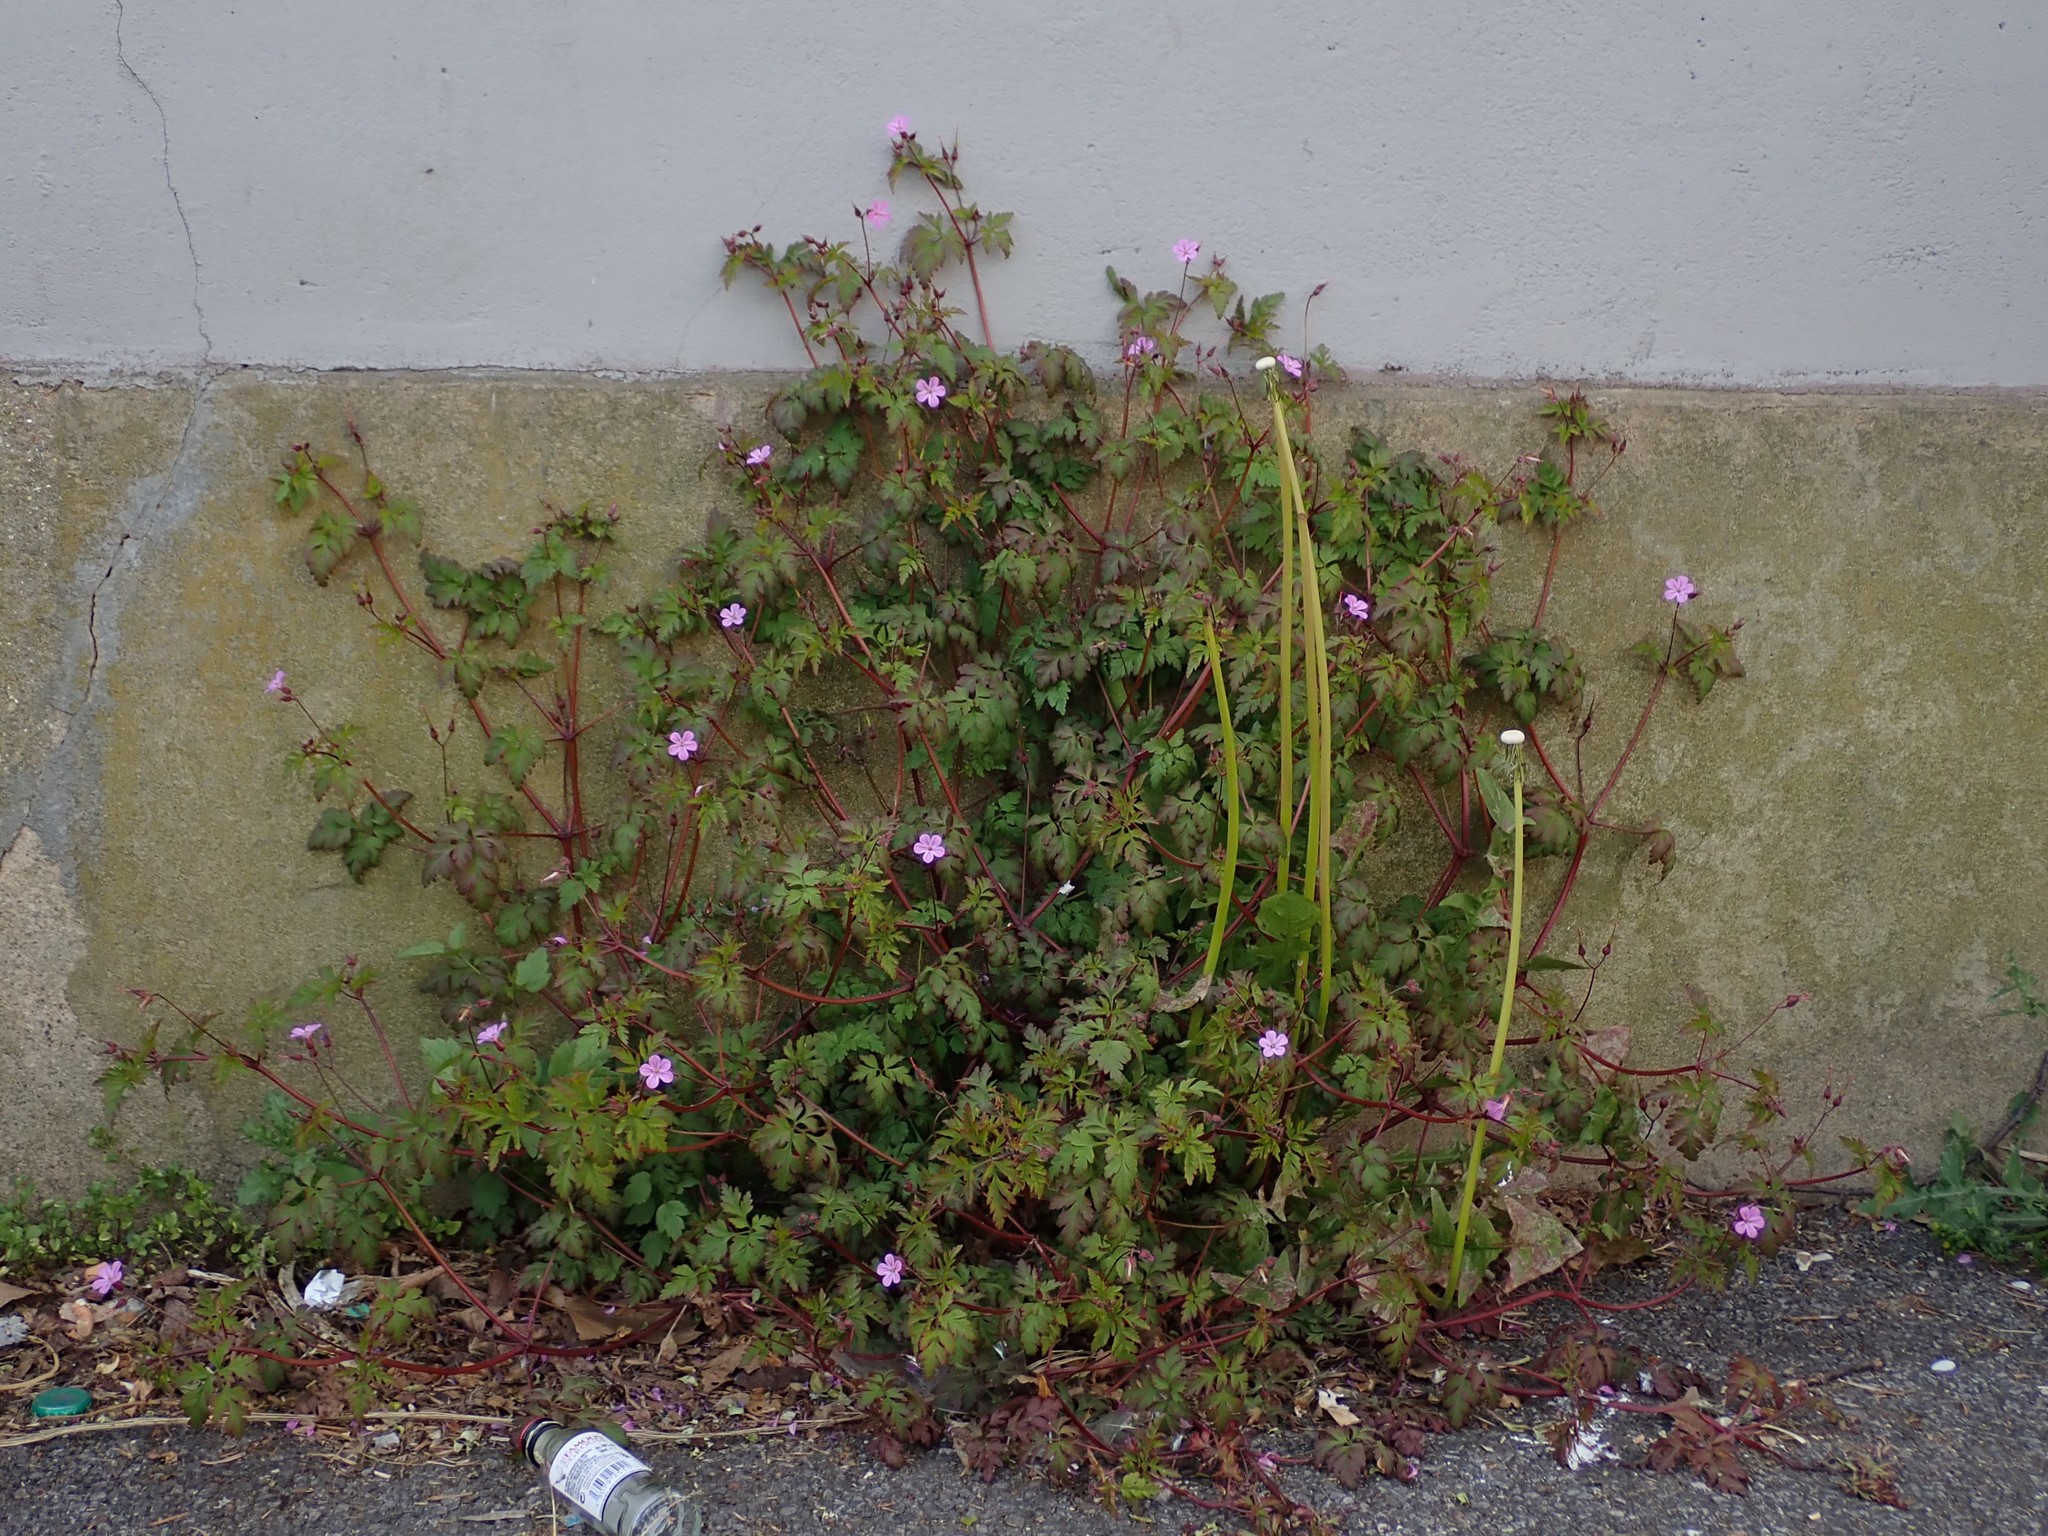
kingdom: Plantae
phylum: Tracheophyta
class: Magnoliopsida
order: Geraniales
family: Geraniaceae
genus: Geranium
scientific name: Geranium robertianum
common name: Herb-robert
